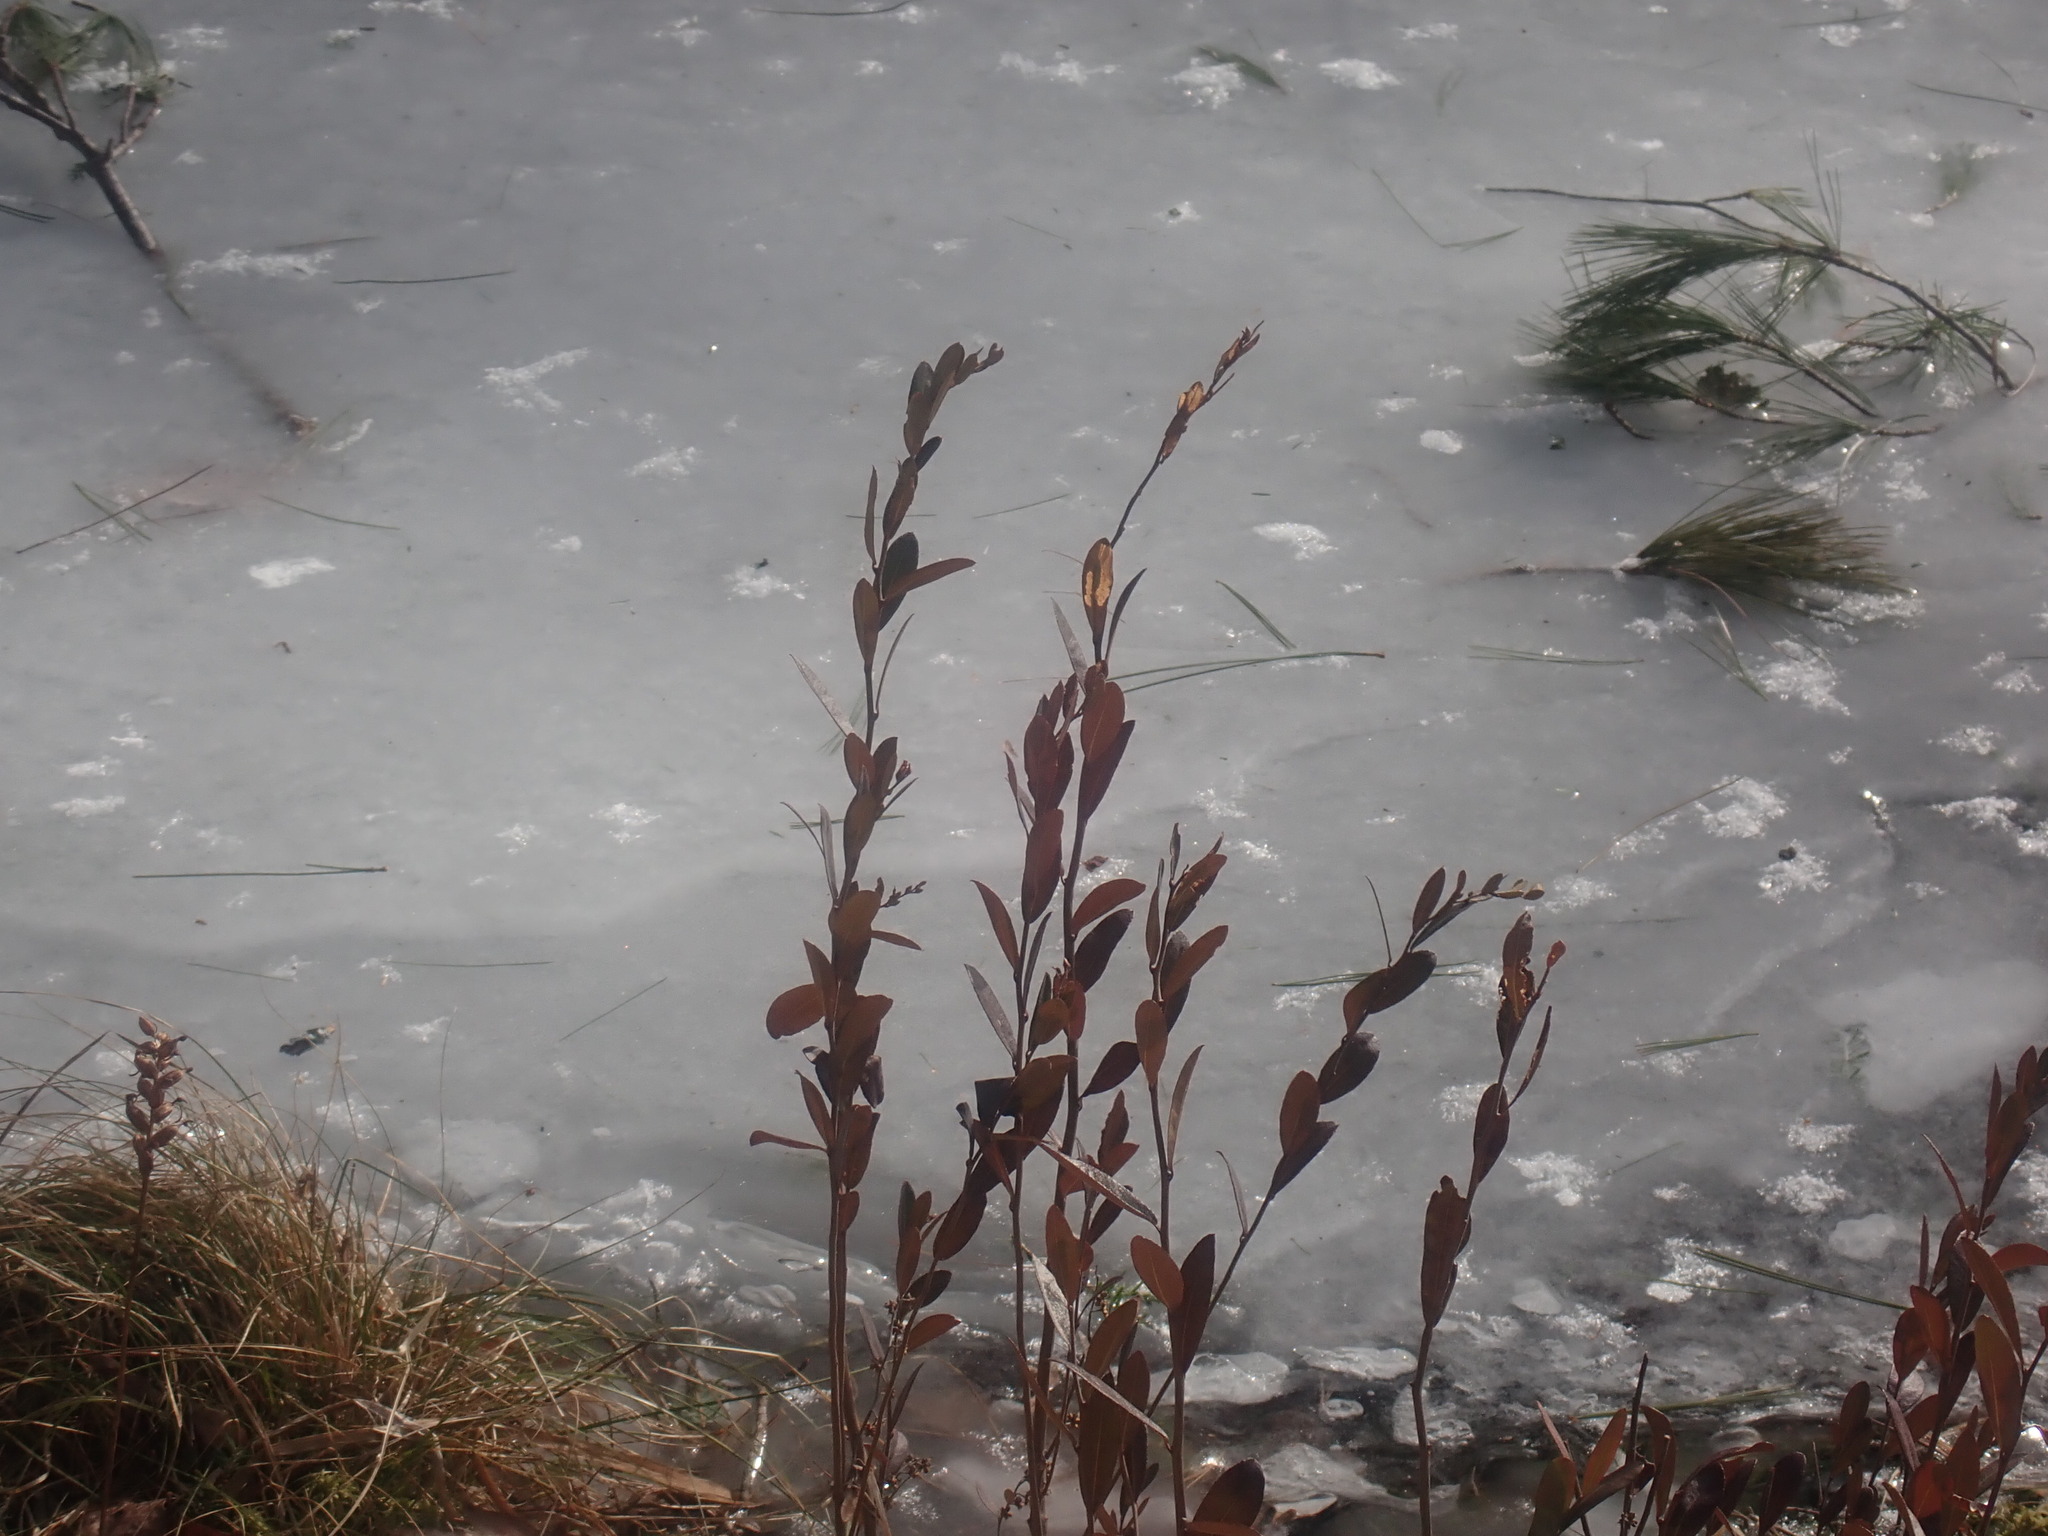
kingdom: Plantae
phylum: Tracheophyta
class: Magnoliopsida
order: Ericales
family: Ericaceae
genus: Chamaedaphne
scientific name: Chamaedaphne calyculata
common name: Leatherleaf
